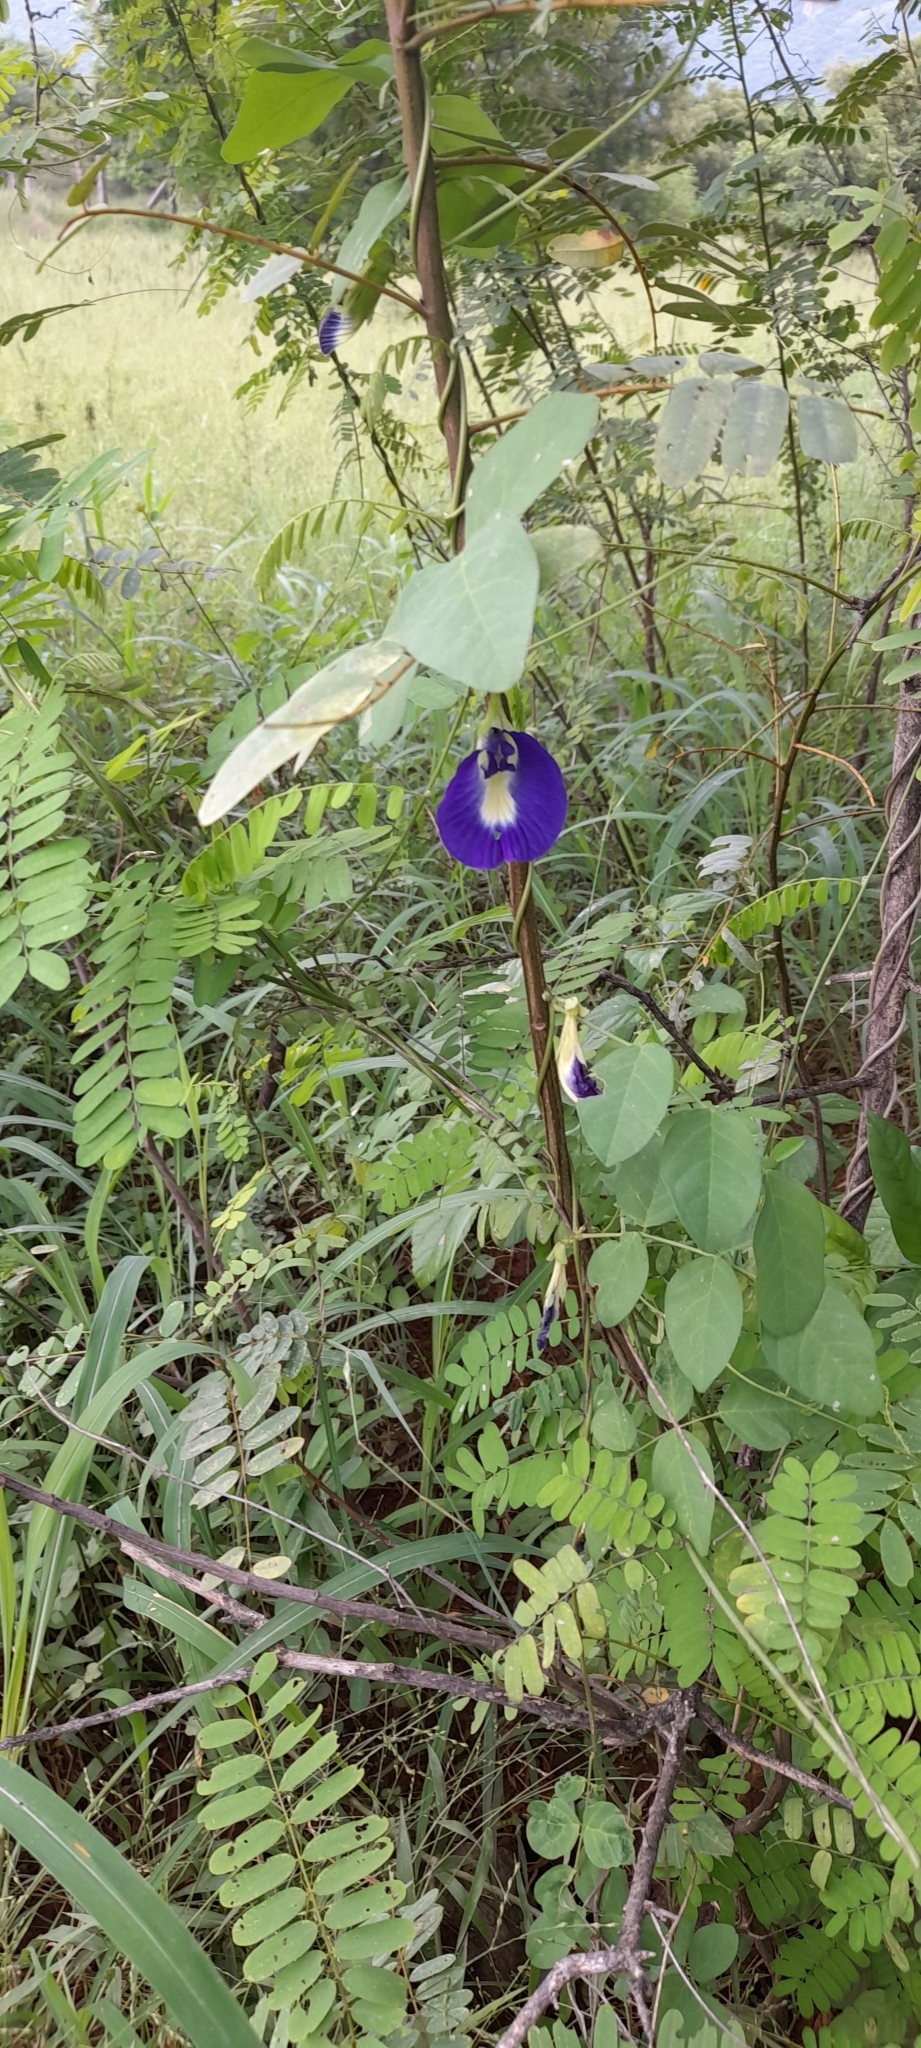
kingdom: Plantae
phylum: Tracheophyta
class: Magnoliopsida
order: Fabales
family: Fabaceae
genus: Clitoria
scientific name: Clitoria ternatea
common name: Asian pigeonwings
